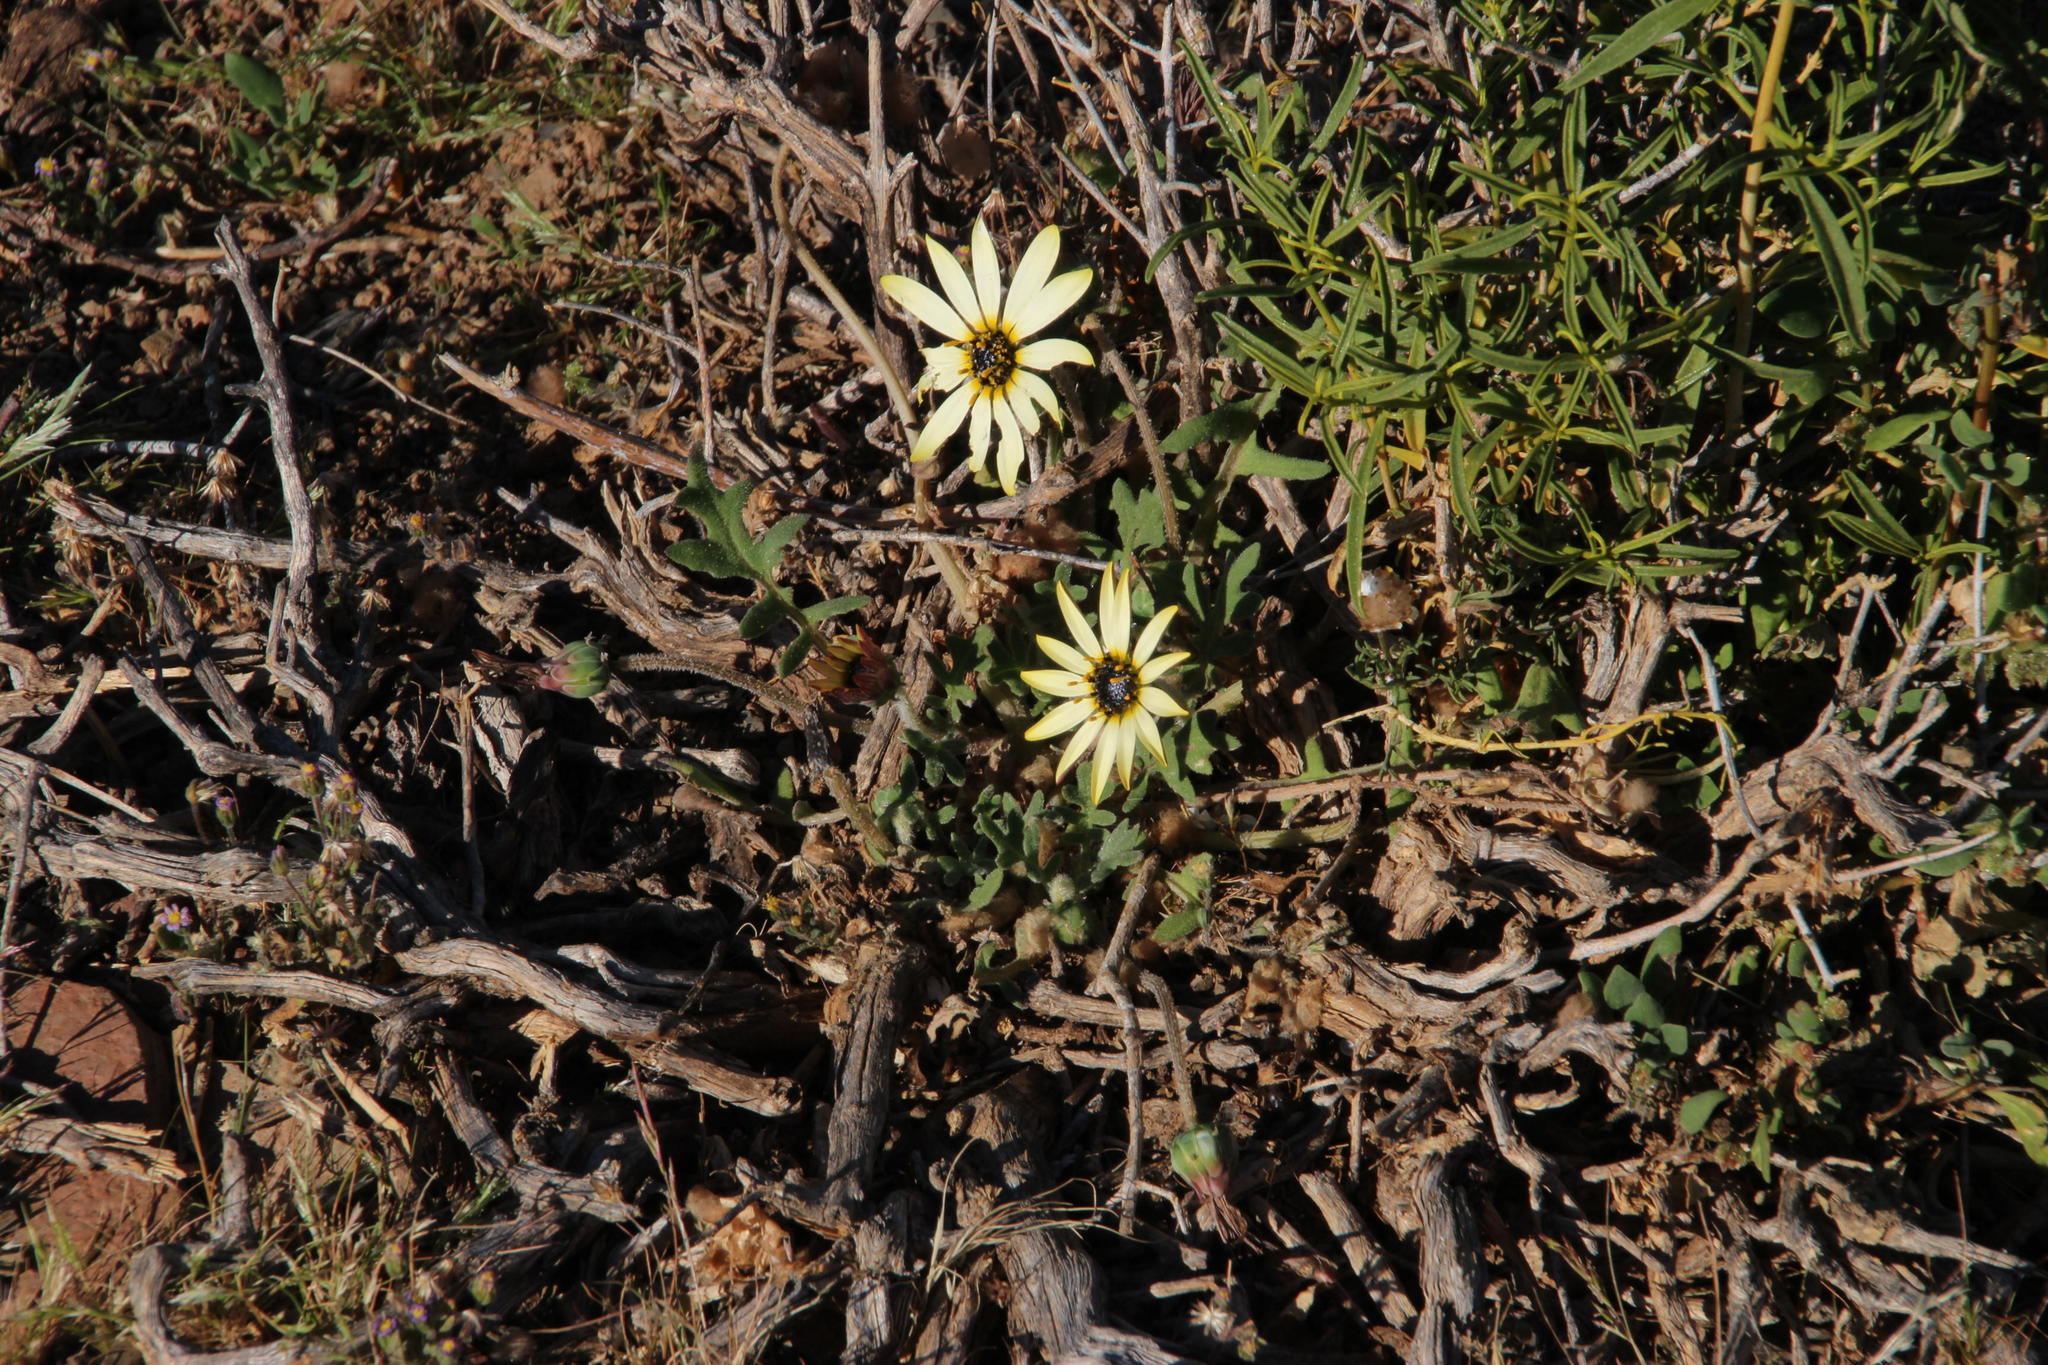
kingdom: Plantae
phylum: Tracheophyta
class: Magnoliopsida
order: Asterales
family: Asteraceae
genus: Arctotheca
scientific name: Arctotheca calendula
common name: Capeweed
